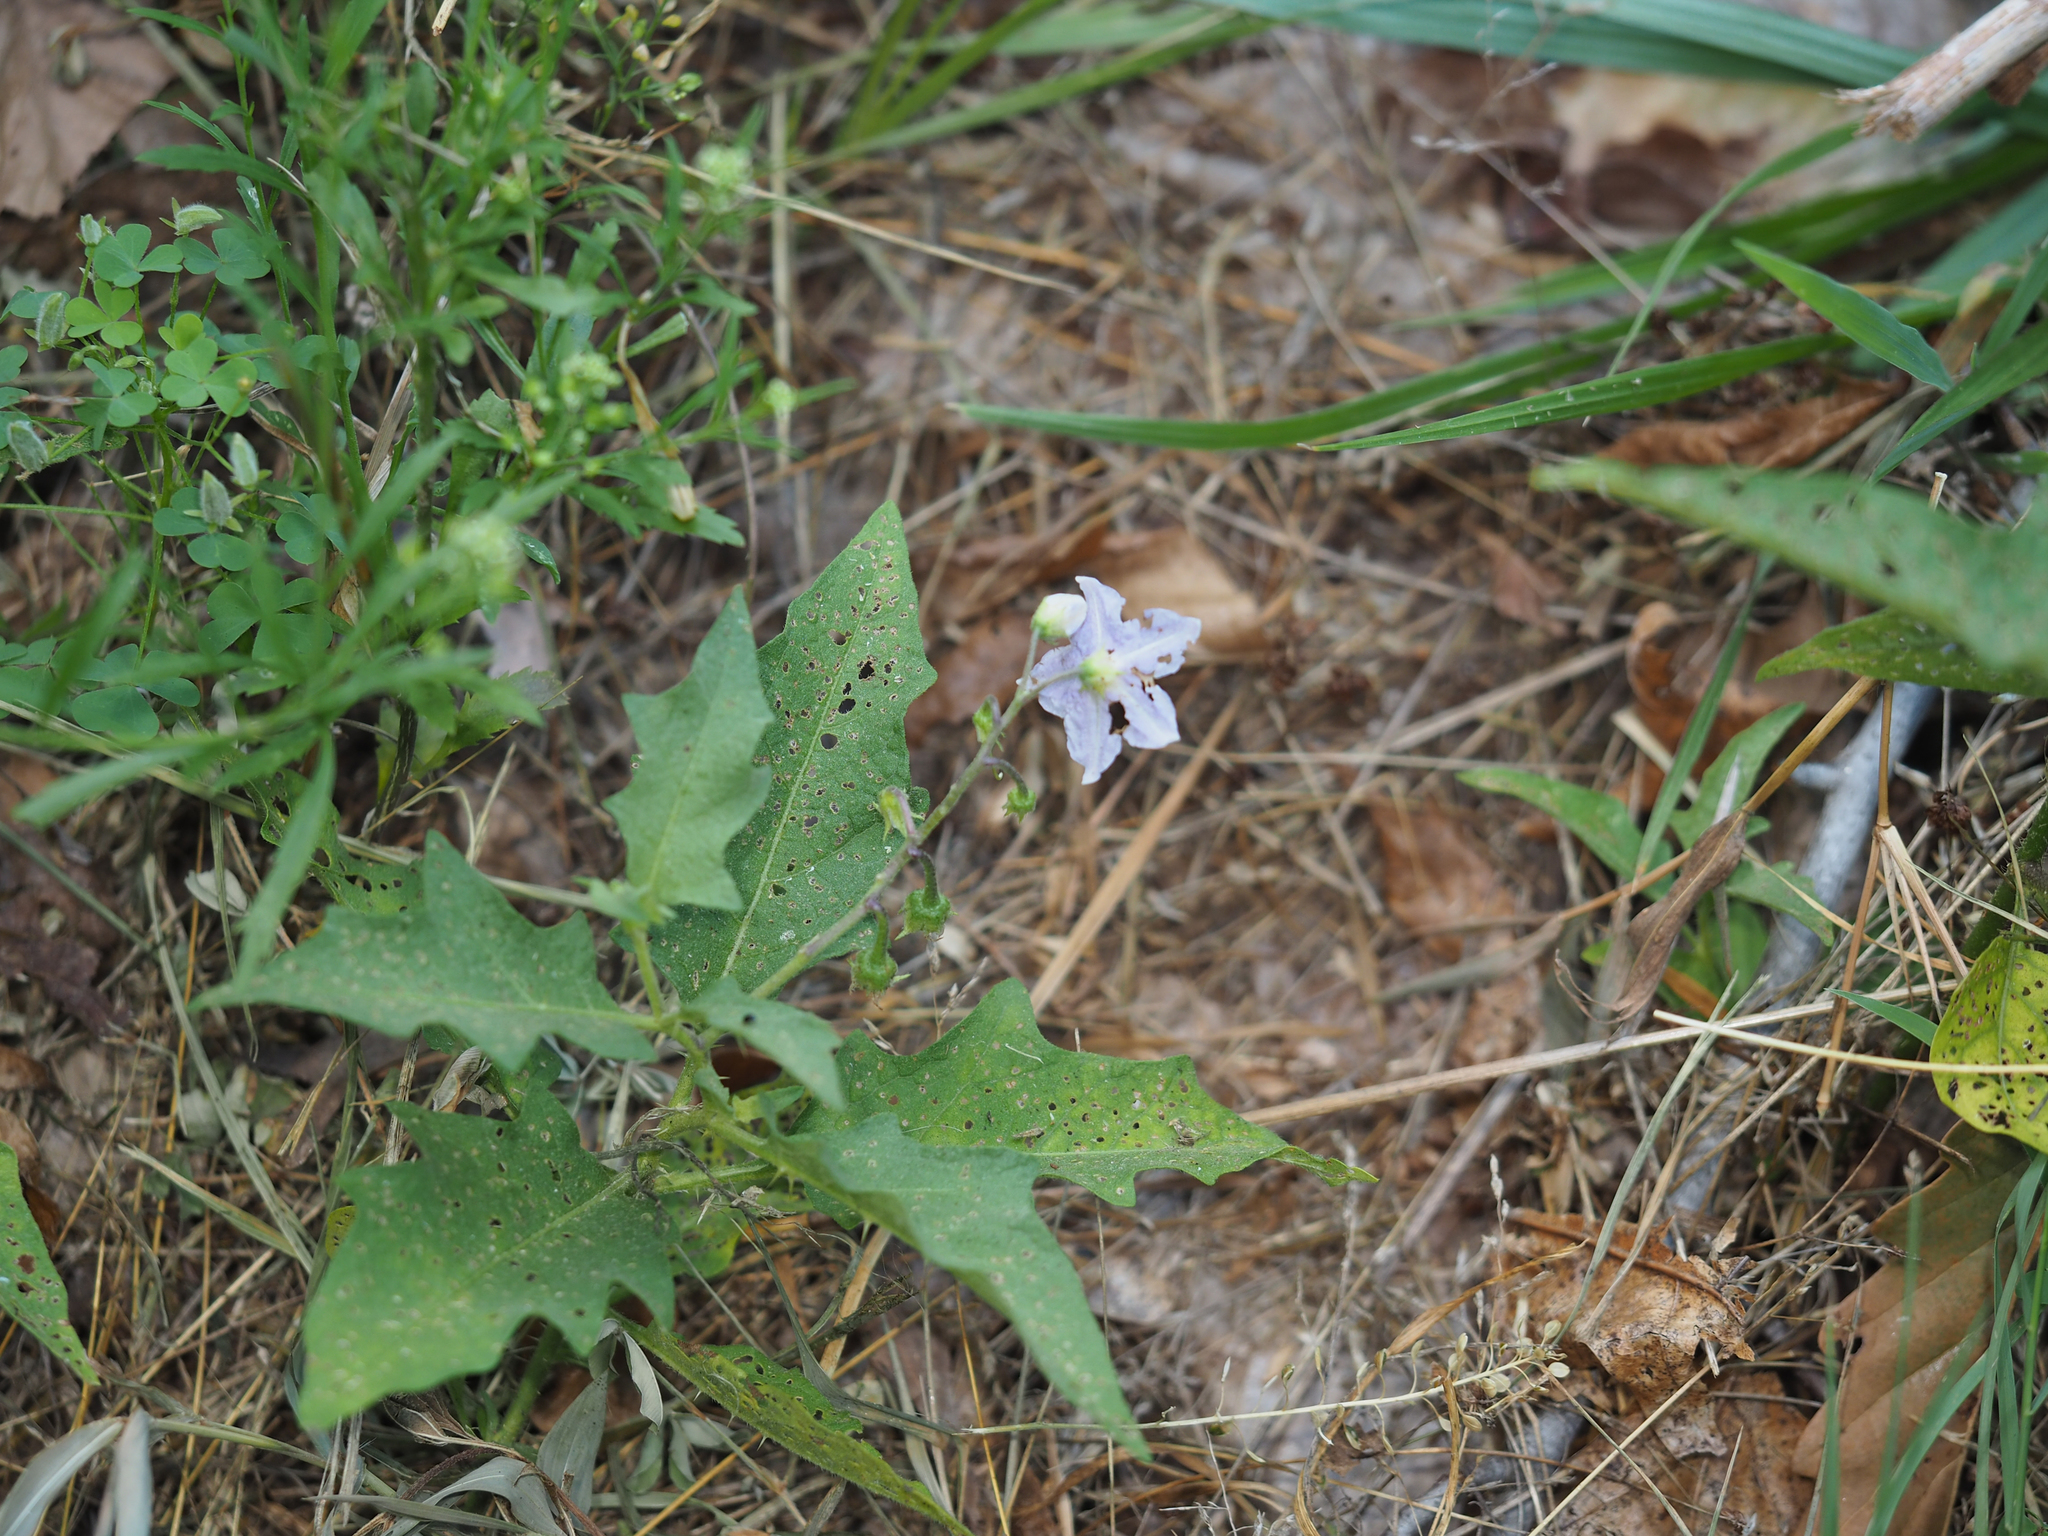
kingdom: Plantae
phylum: Tracheophyta
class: Magnoliopsida
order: Solanales
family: Solanaceae
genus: Solanum
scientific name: Solanum carolinense
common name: Horse-nettle
